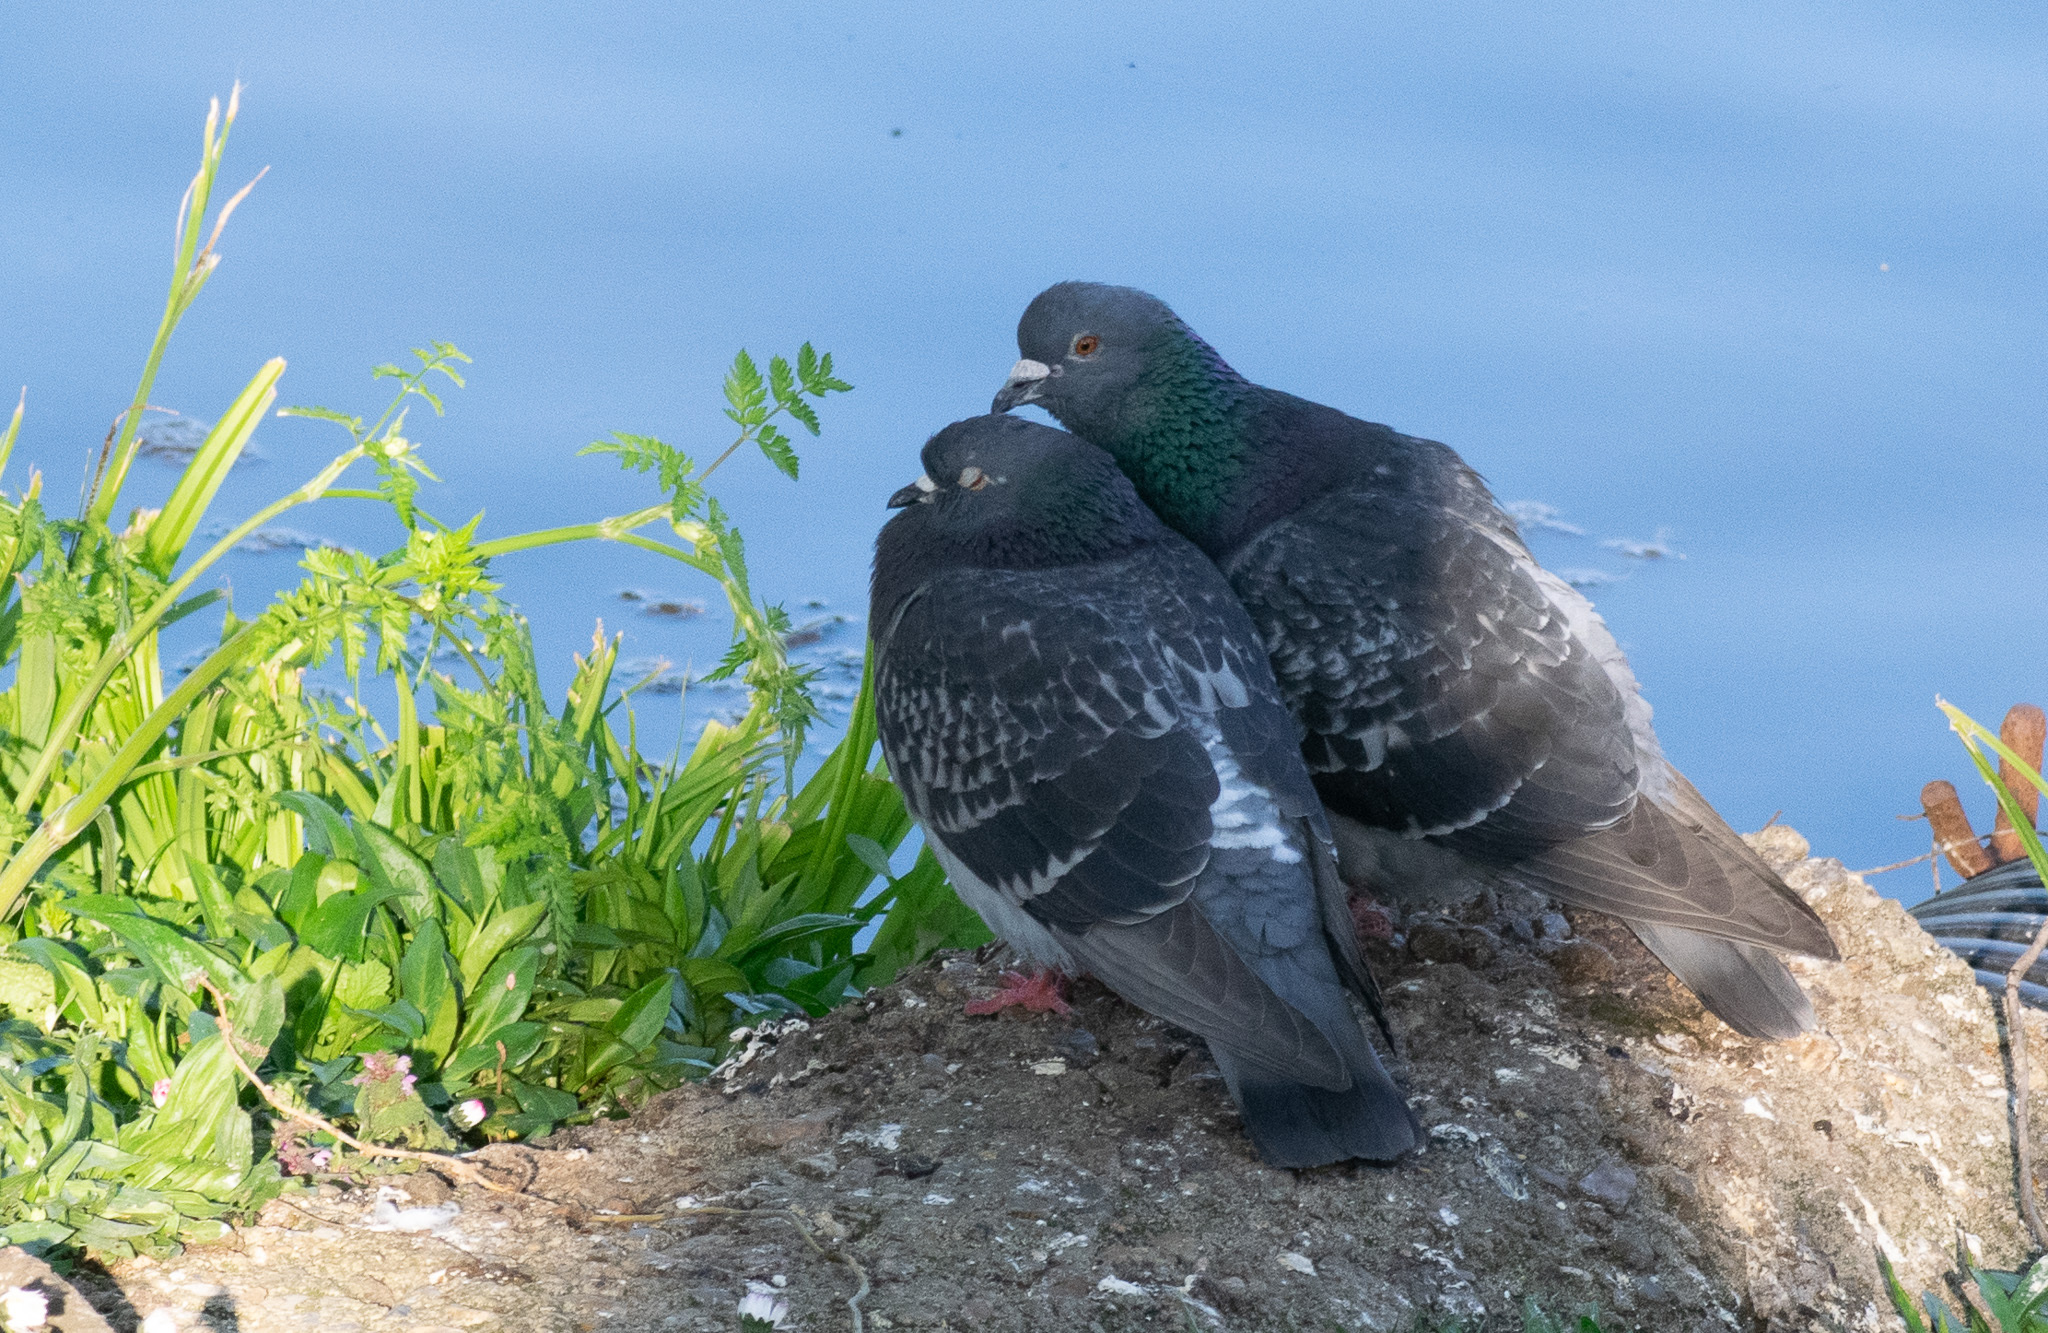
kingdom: Animalia
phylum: Chordata
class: Aves
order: Columbiformes
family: Columbidae
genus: Columba
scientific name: Columba livia
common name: Rock pigeon
